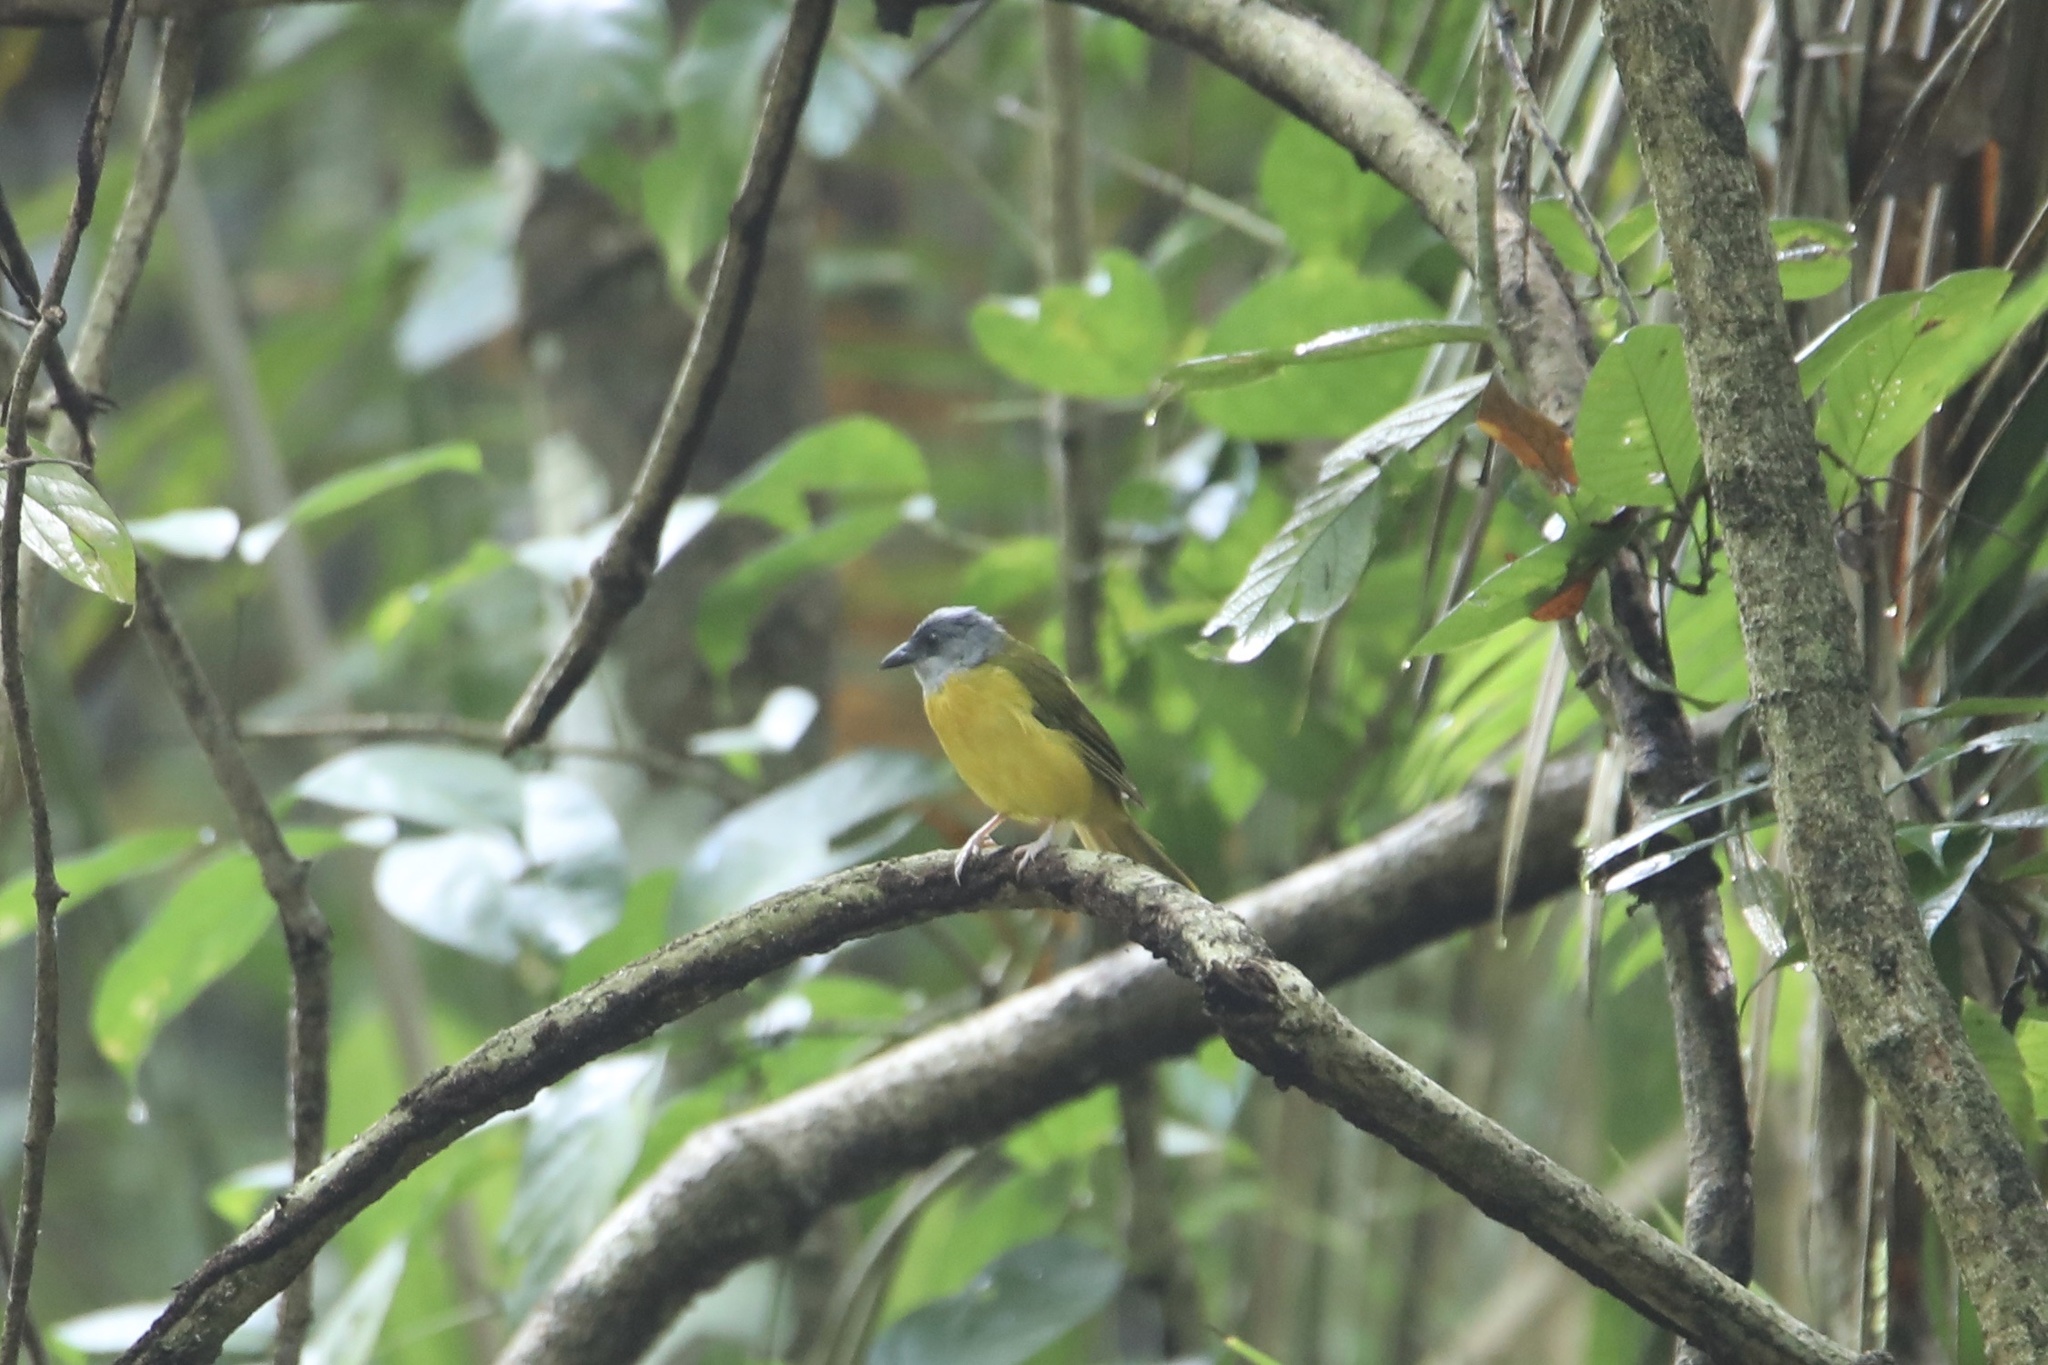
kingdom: Animalia
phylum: Chordata
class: Aves
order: Passeriformes
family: Thraupidae
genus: Eucometis
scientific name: Eucometis penicillata
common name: Grey-headed tanager
